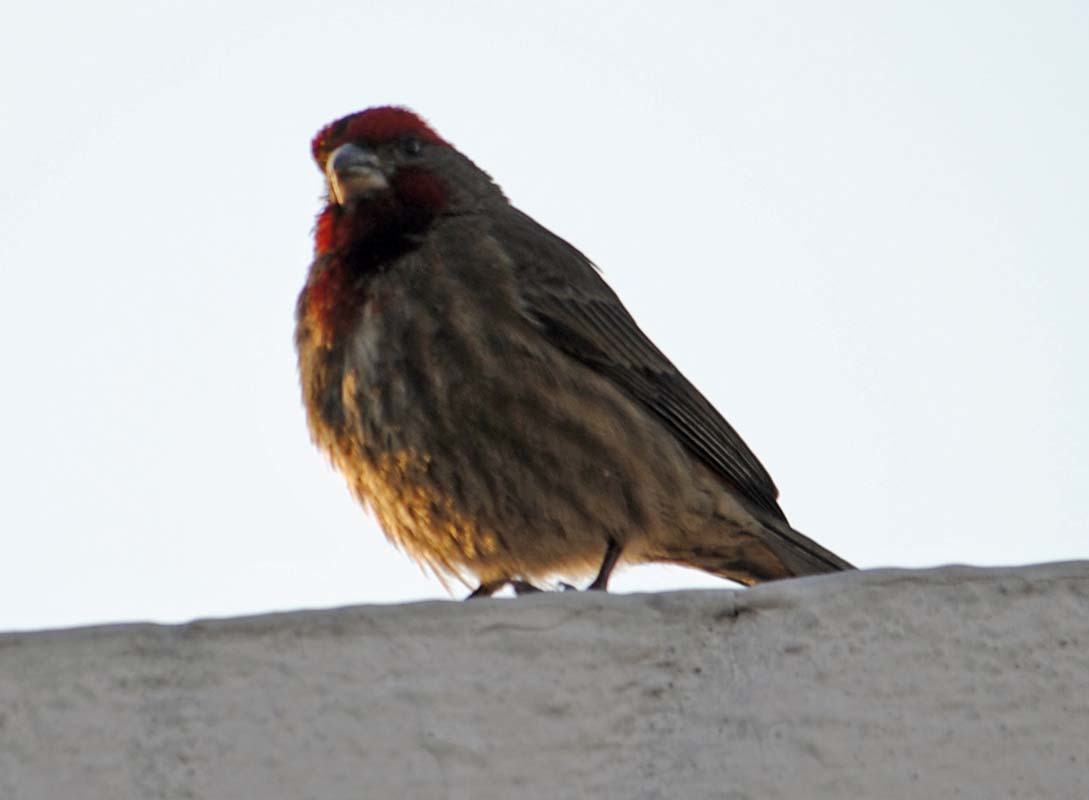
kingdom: Animalia
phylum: Chordata
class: Aves
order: Passeriformes
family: Fringillidae
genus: Haemorhous
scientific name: Haemorhous mexicanus
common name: House finch
